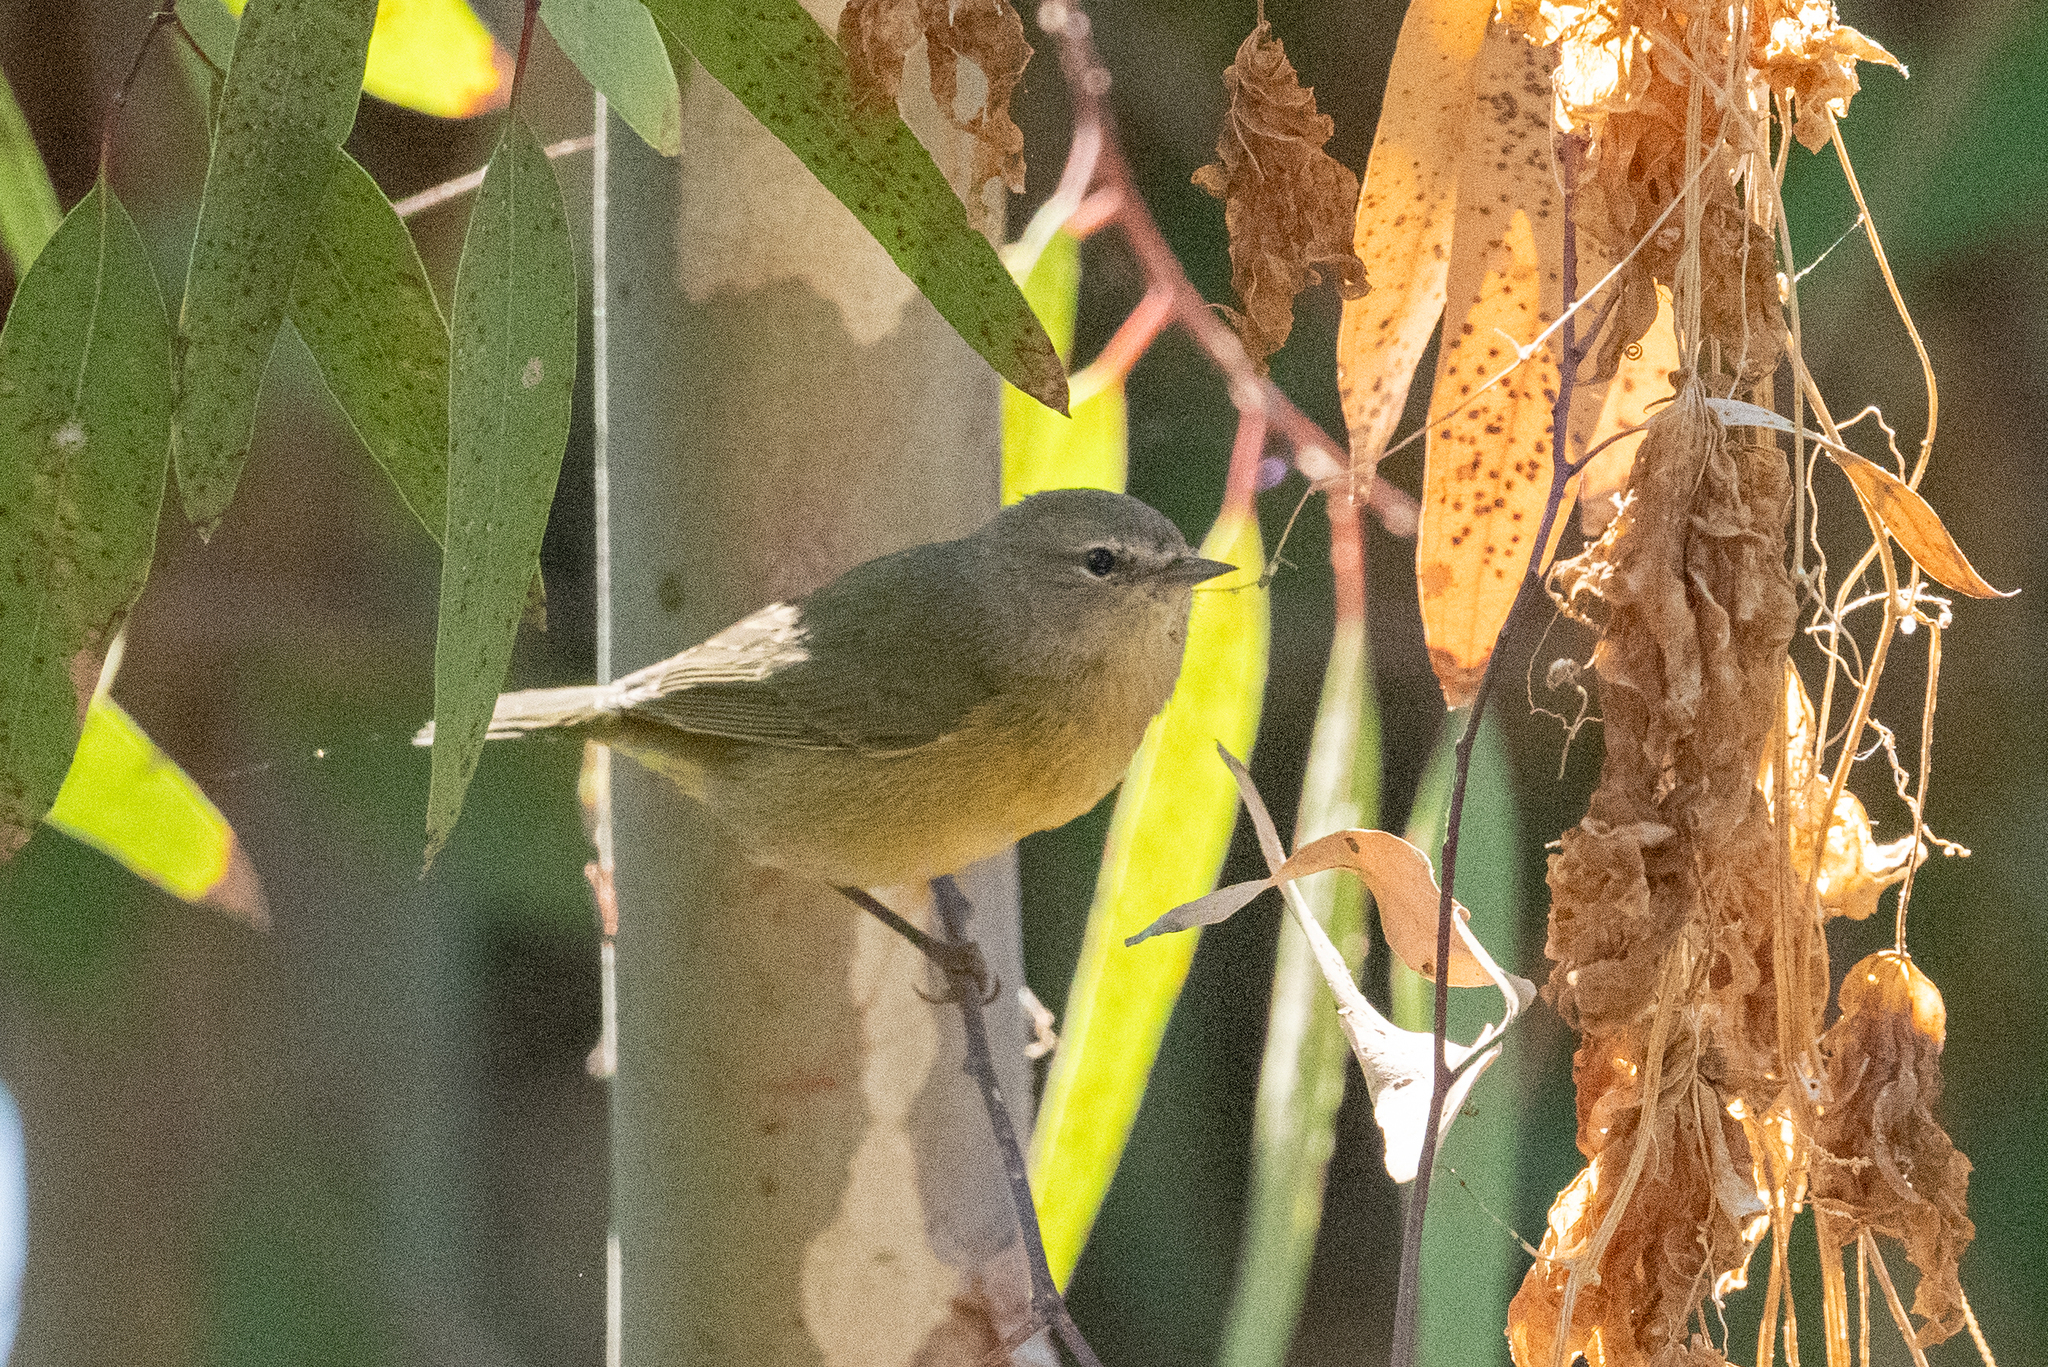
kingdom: Animalia
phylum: Chordata
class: Aves
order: Passeriformes
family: Parulidae
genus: Leiothlypis
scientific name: Leiothlypis celata
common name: Orange-crowned warbler
